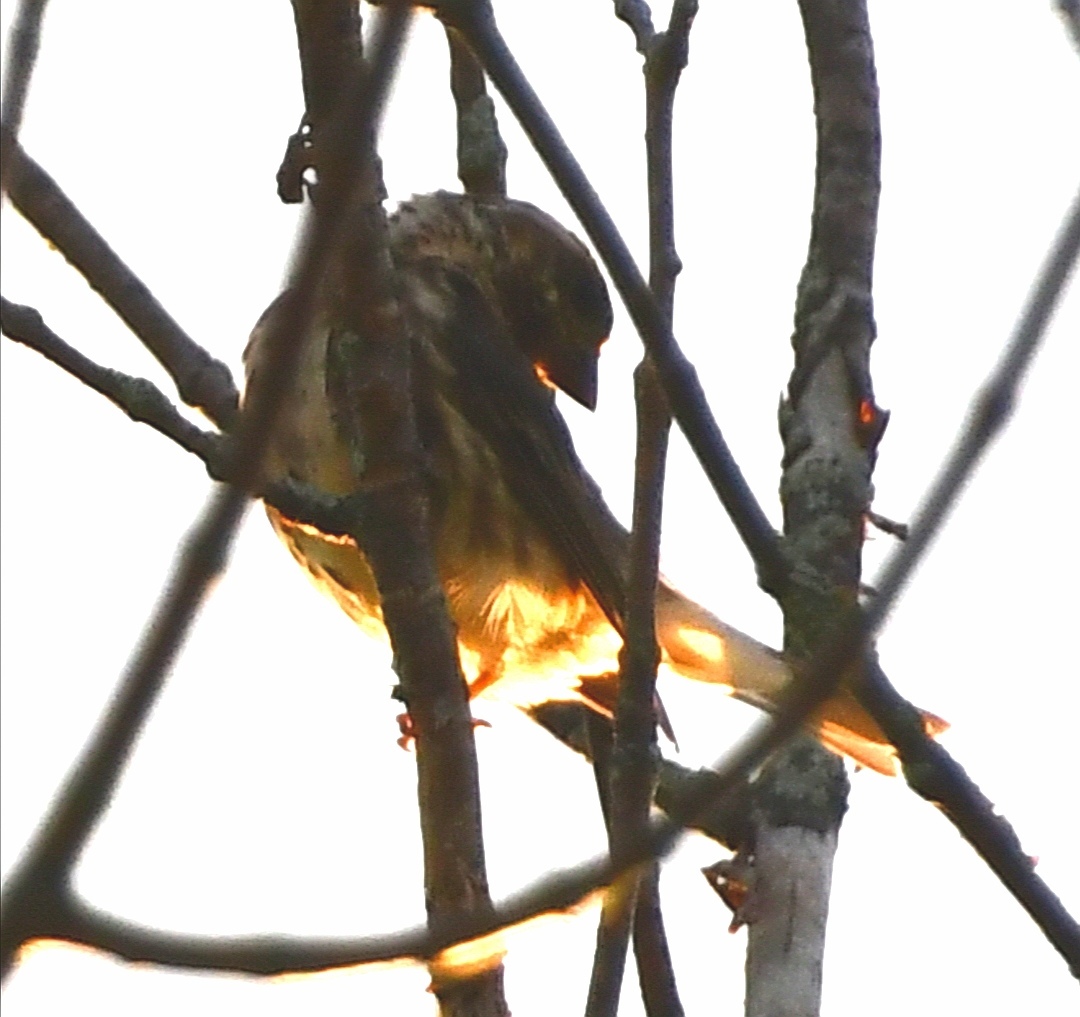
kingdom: Animalia
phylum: Chordata
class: Aves
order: Passeriformes
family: Fringillidae
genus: Haemorhous
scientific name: Haemorhous purpureus
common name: Purple finch
